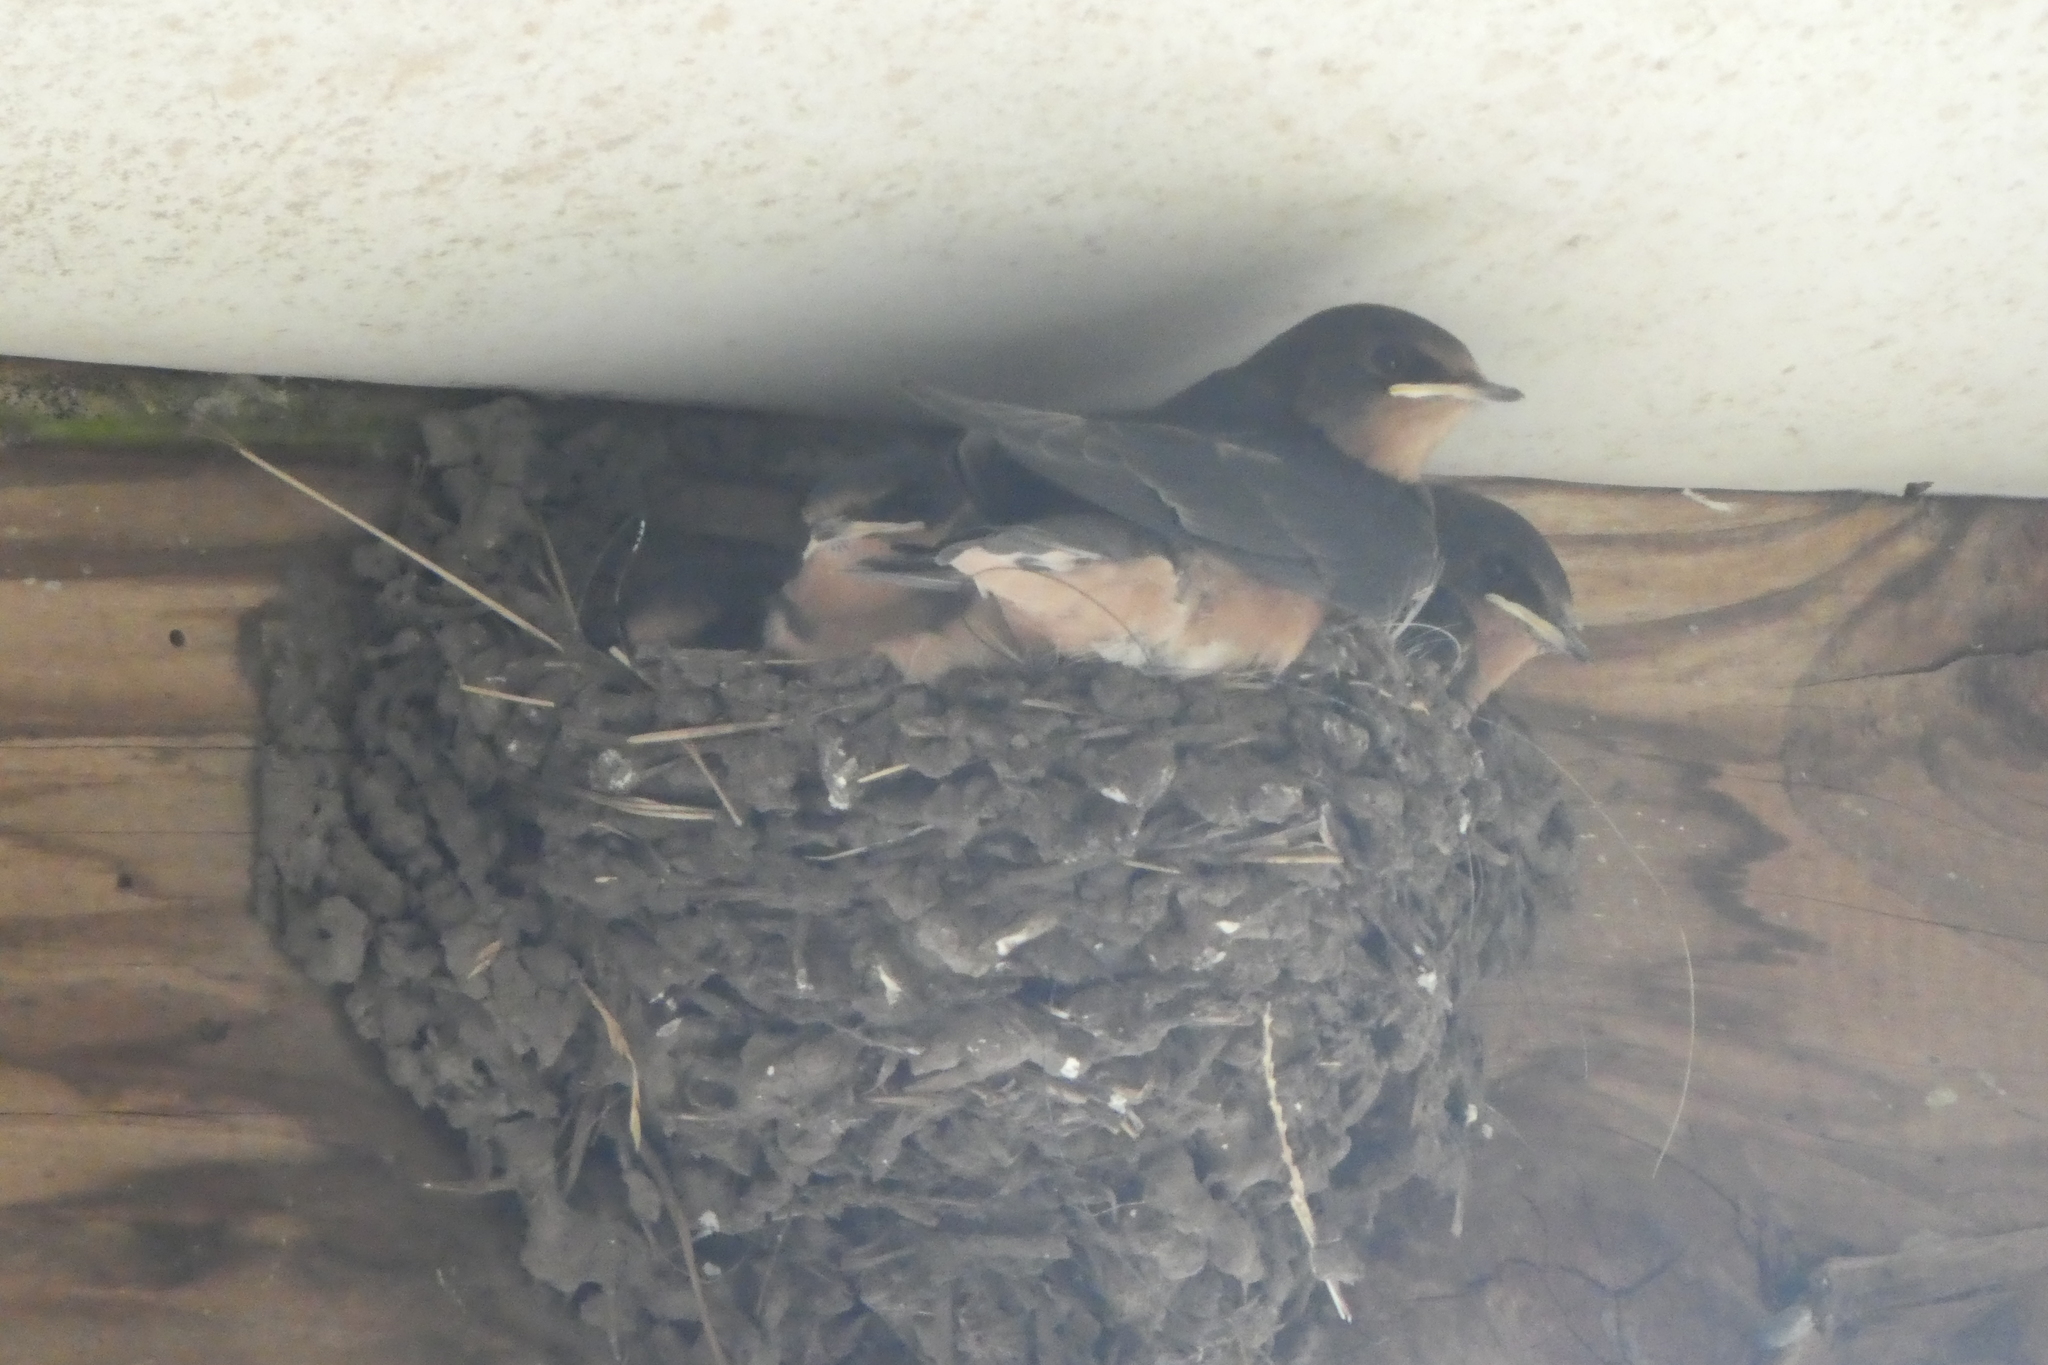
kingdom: Animalia
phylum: Chordata
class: Aves
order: Passeriformes
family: Hirundinidae
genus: Hirundo
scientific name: Hirundo rustica
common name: Barn swallow
